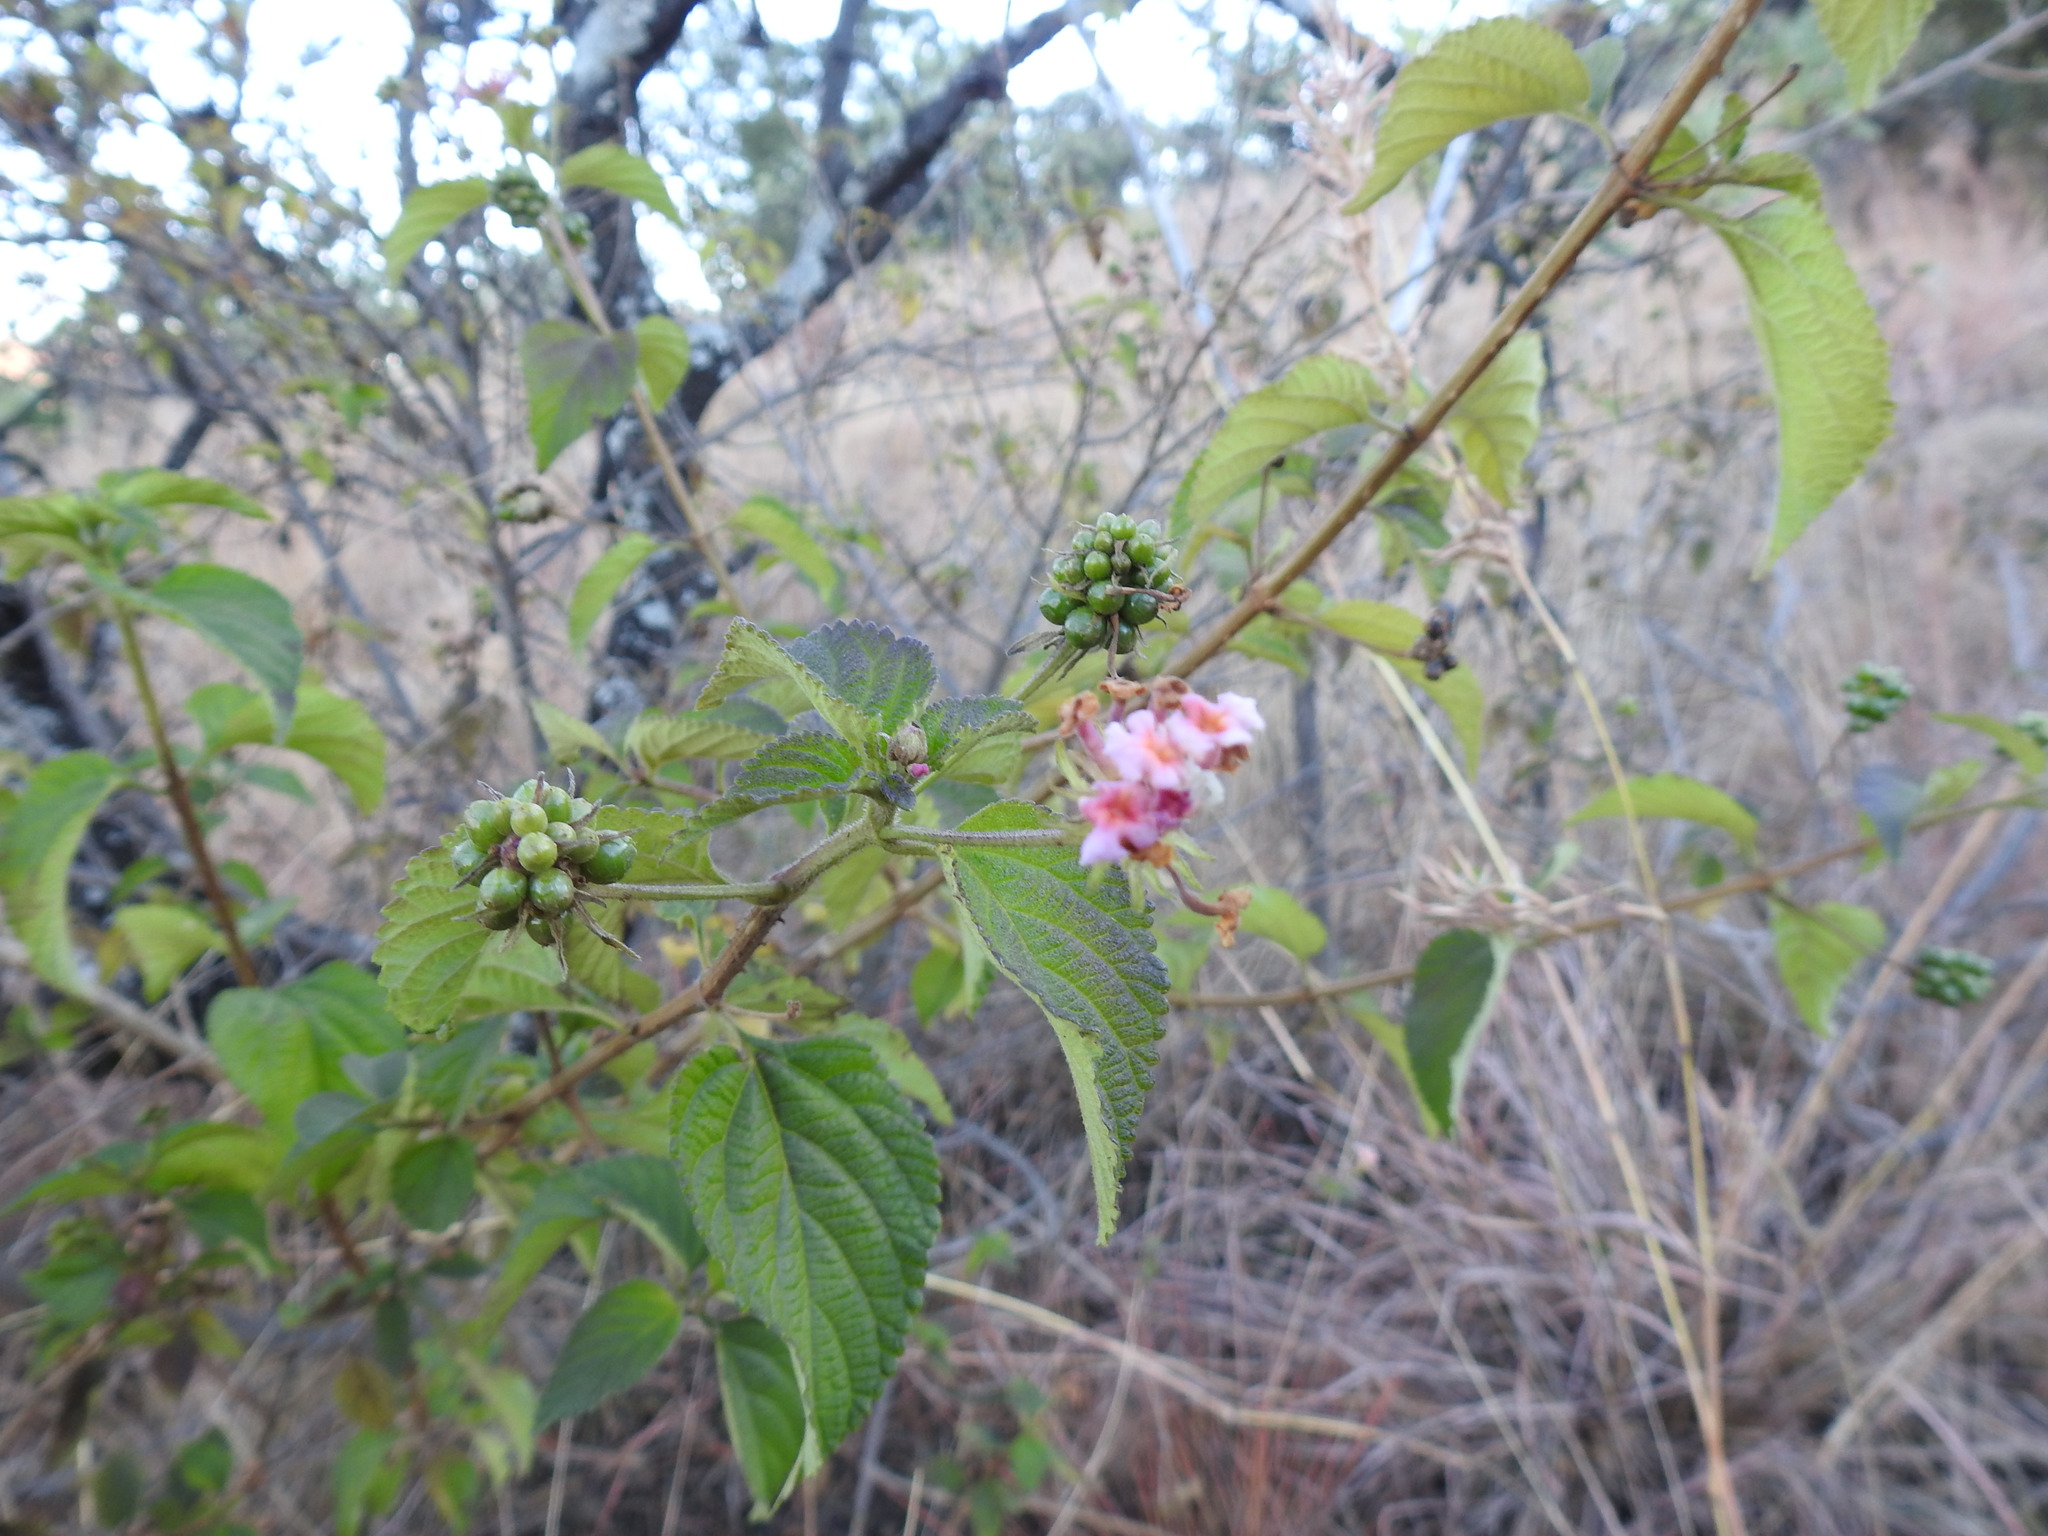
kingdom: Plantae
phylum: Tracheophyta
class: Magnoliopsida
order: Lamiales
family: Verbenaceae
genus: Lantana
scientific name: Lantana camara
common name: Lantana
